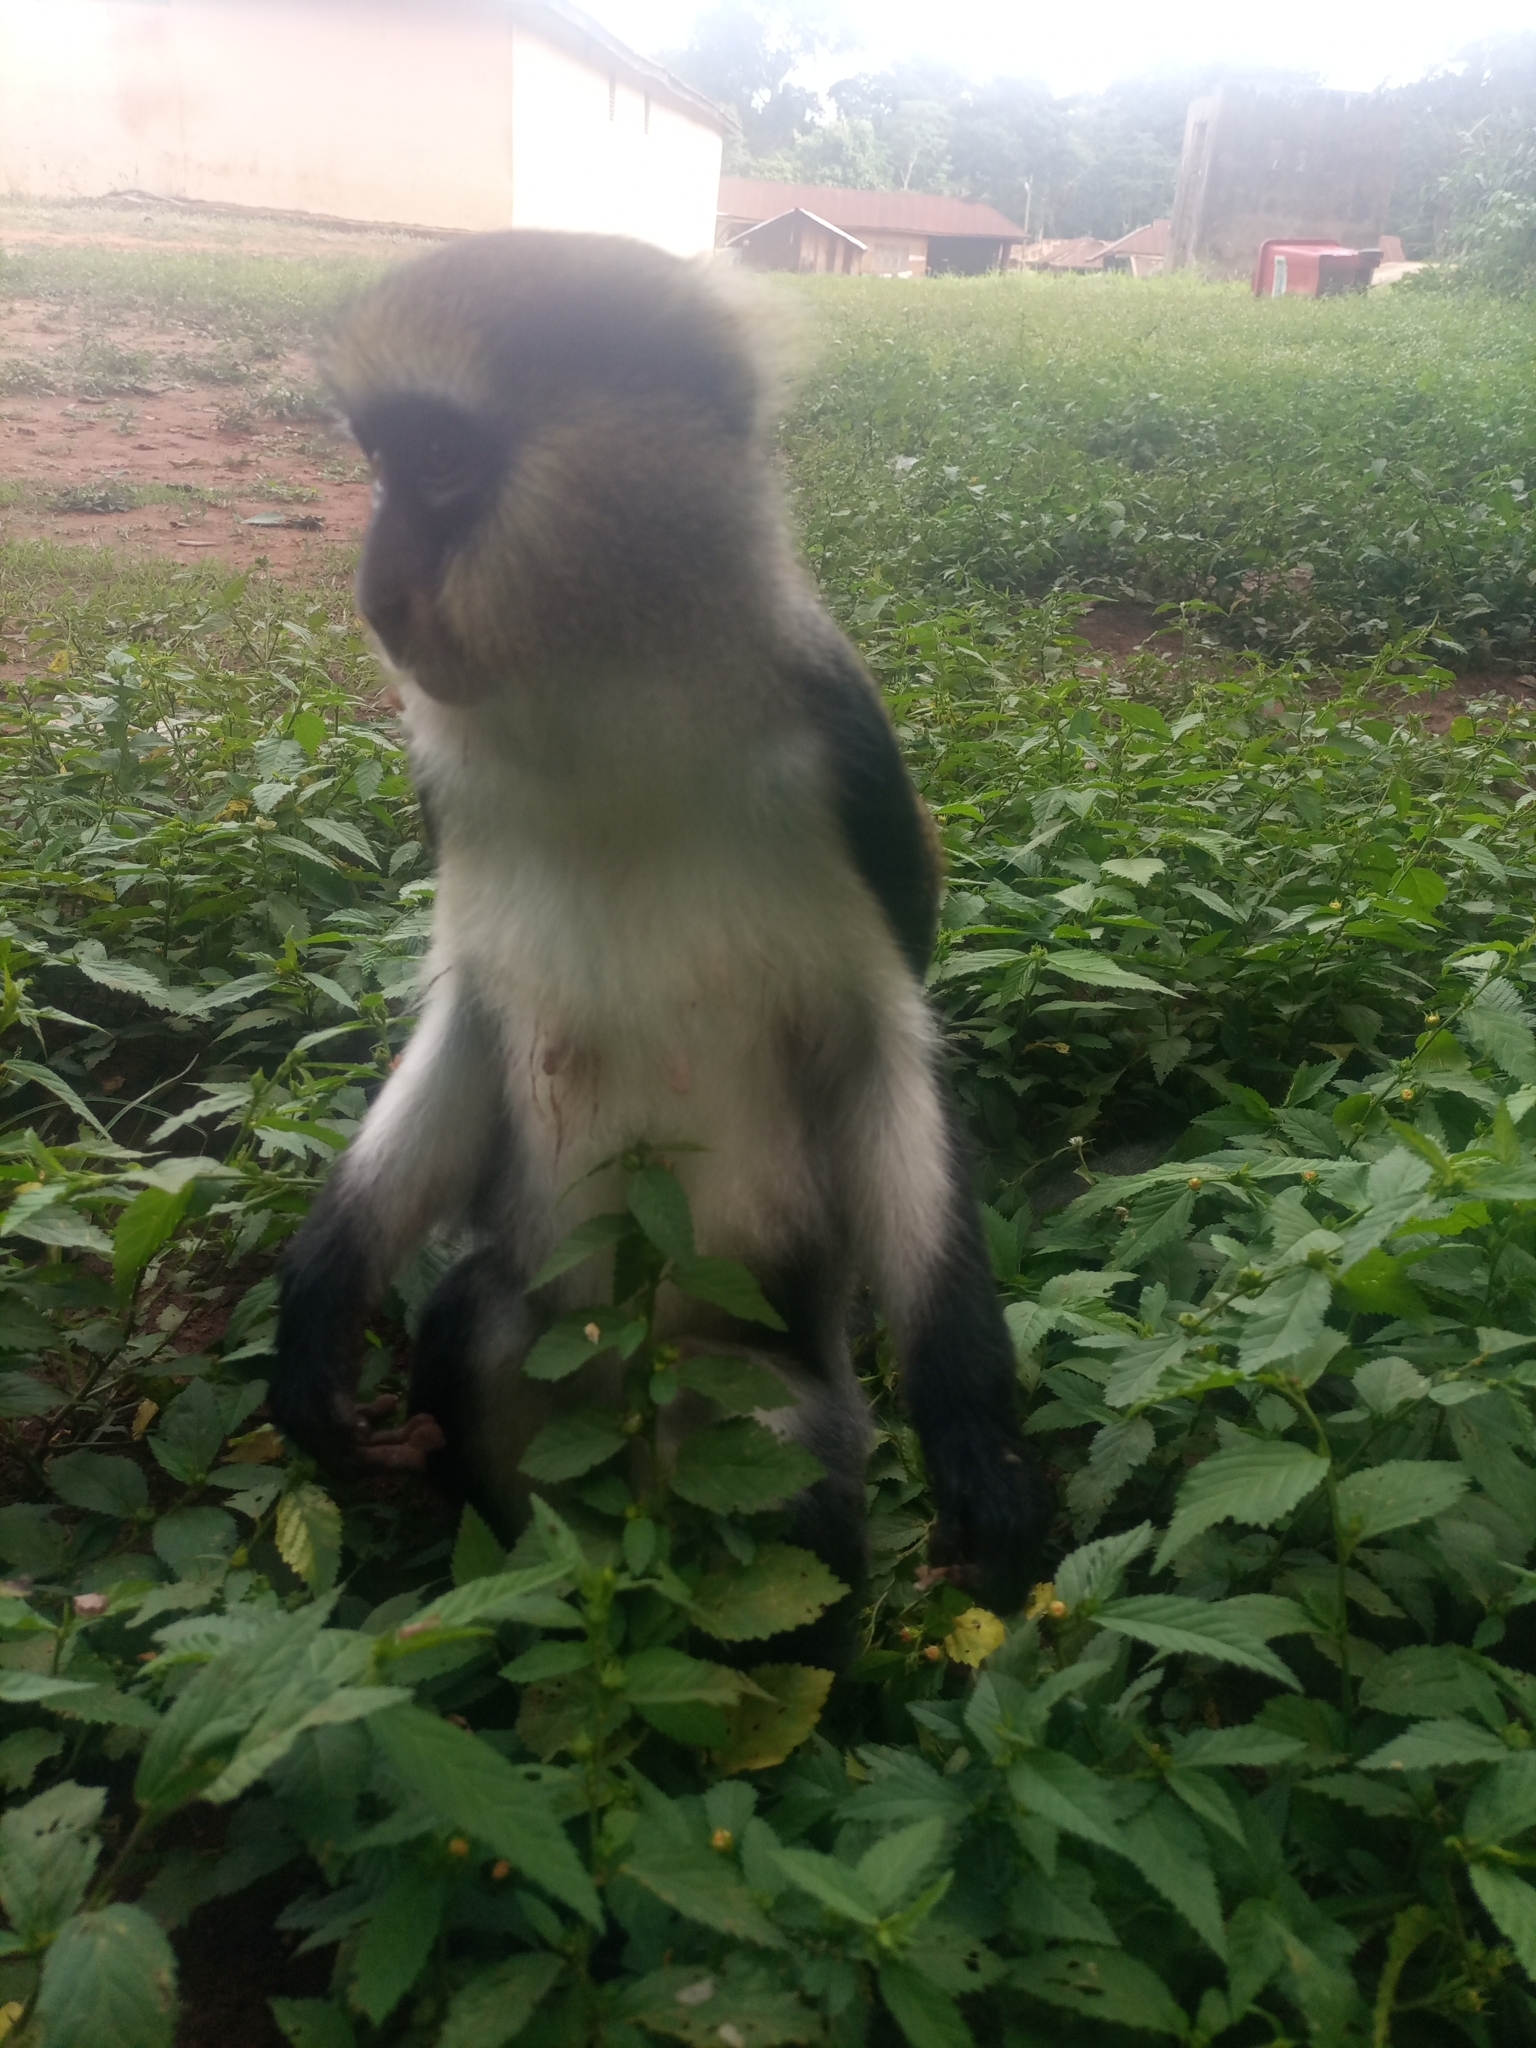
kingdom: Animalia
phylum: Chordata
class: Mammalia
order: Primates
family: Cercopithecidae
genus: Cercopithecus
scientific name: Cercopithecus lowei
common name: Lowe's monkey
